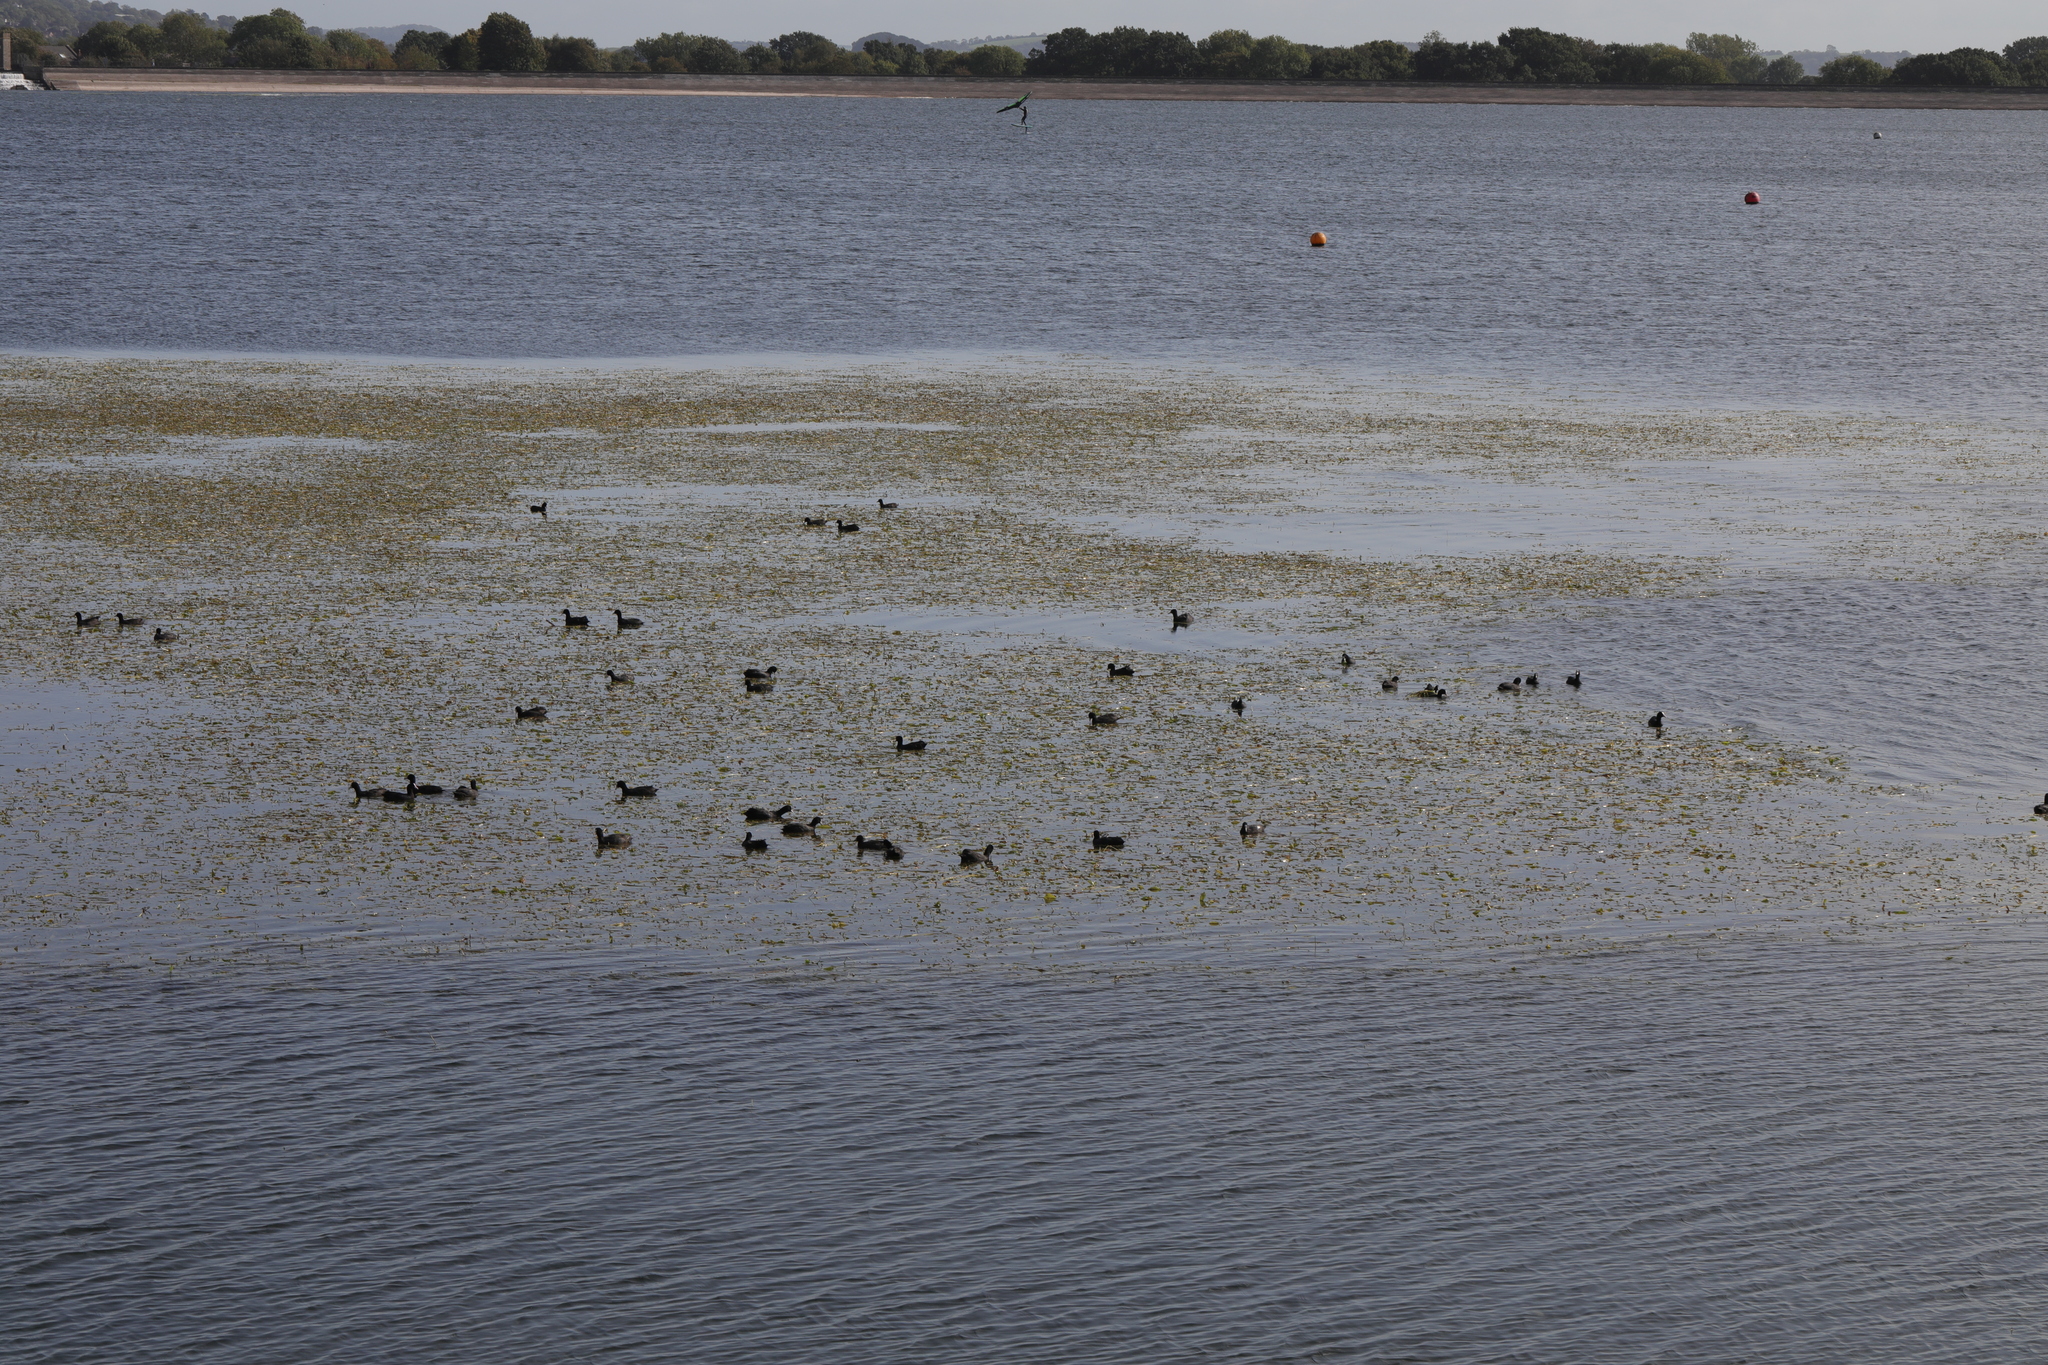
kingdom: Animalia
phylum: Chordata
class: Aves
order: Gruiformes
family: Rallidae
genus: Fulica
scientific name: Fulica atra
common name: Eurasian coot
